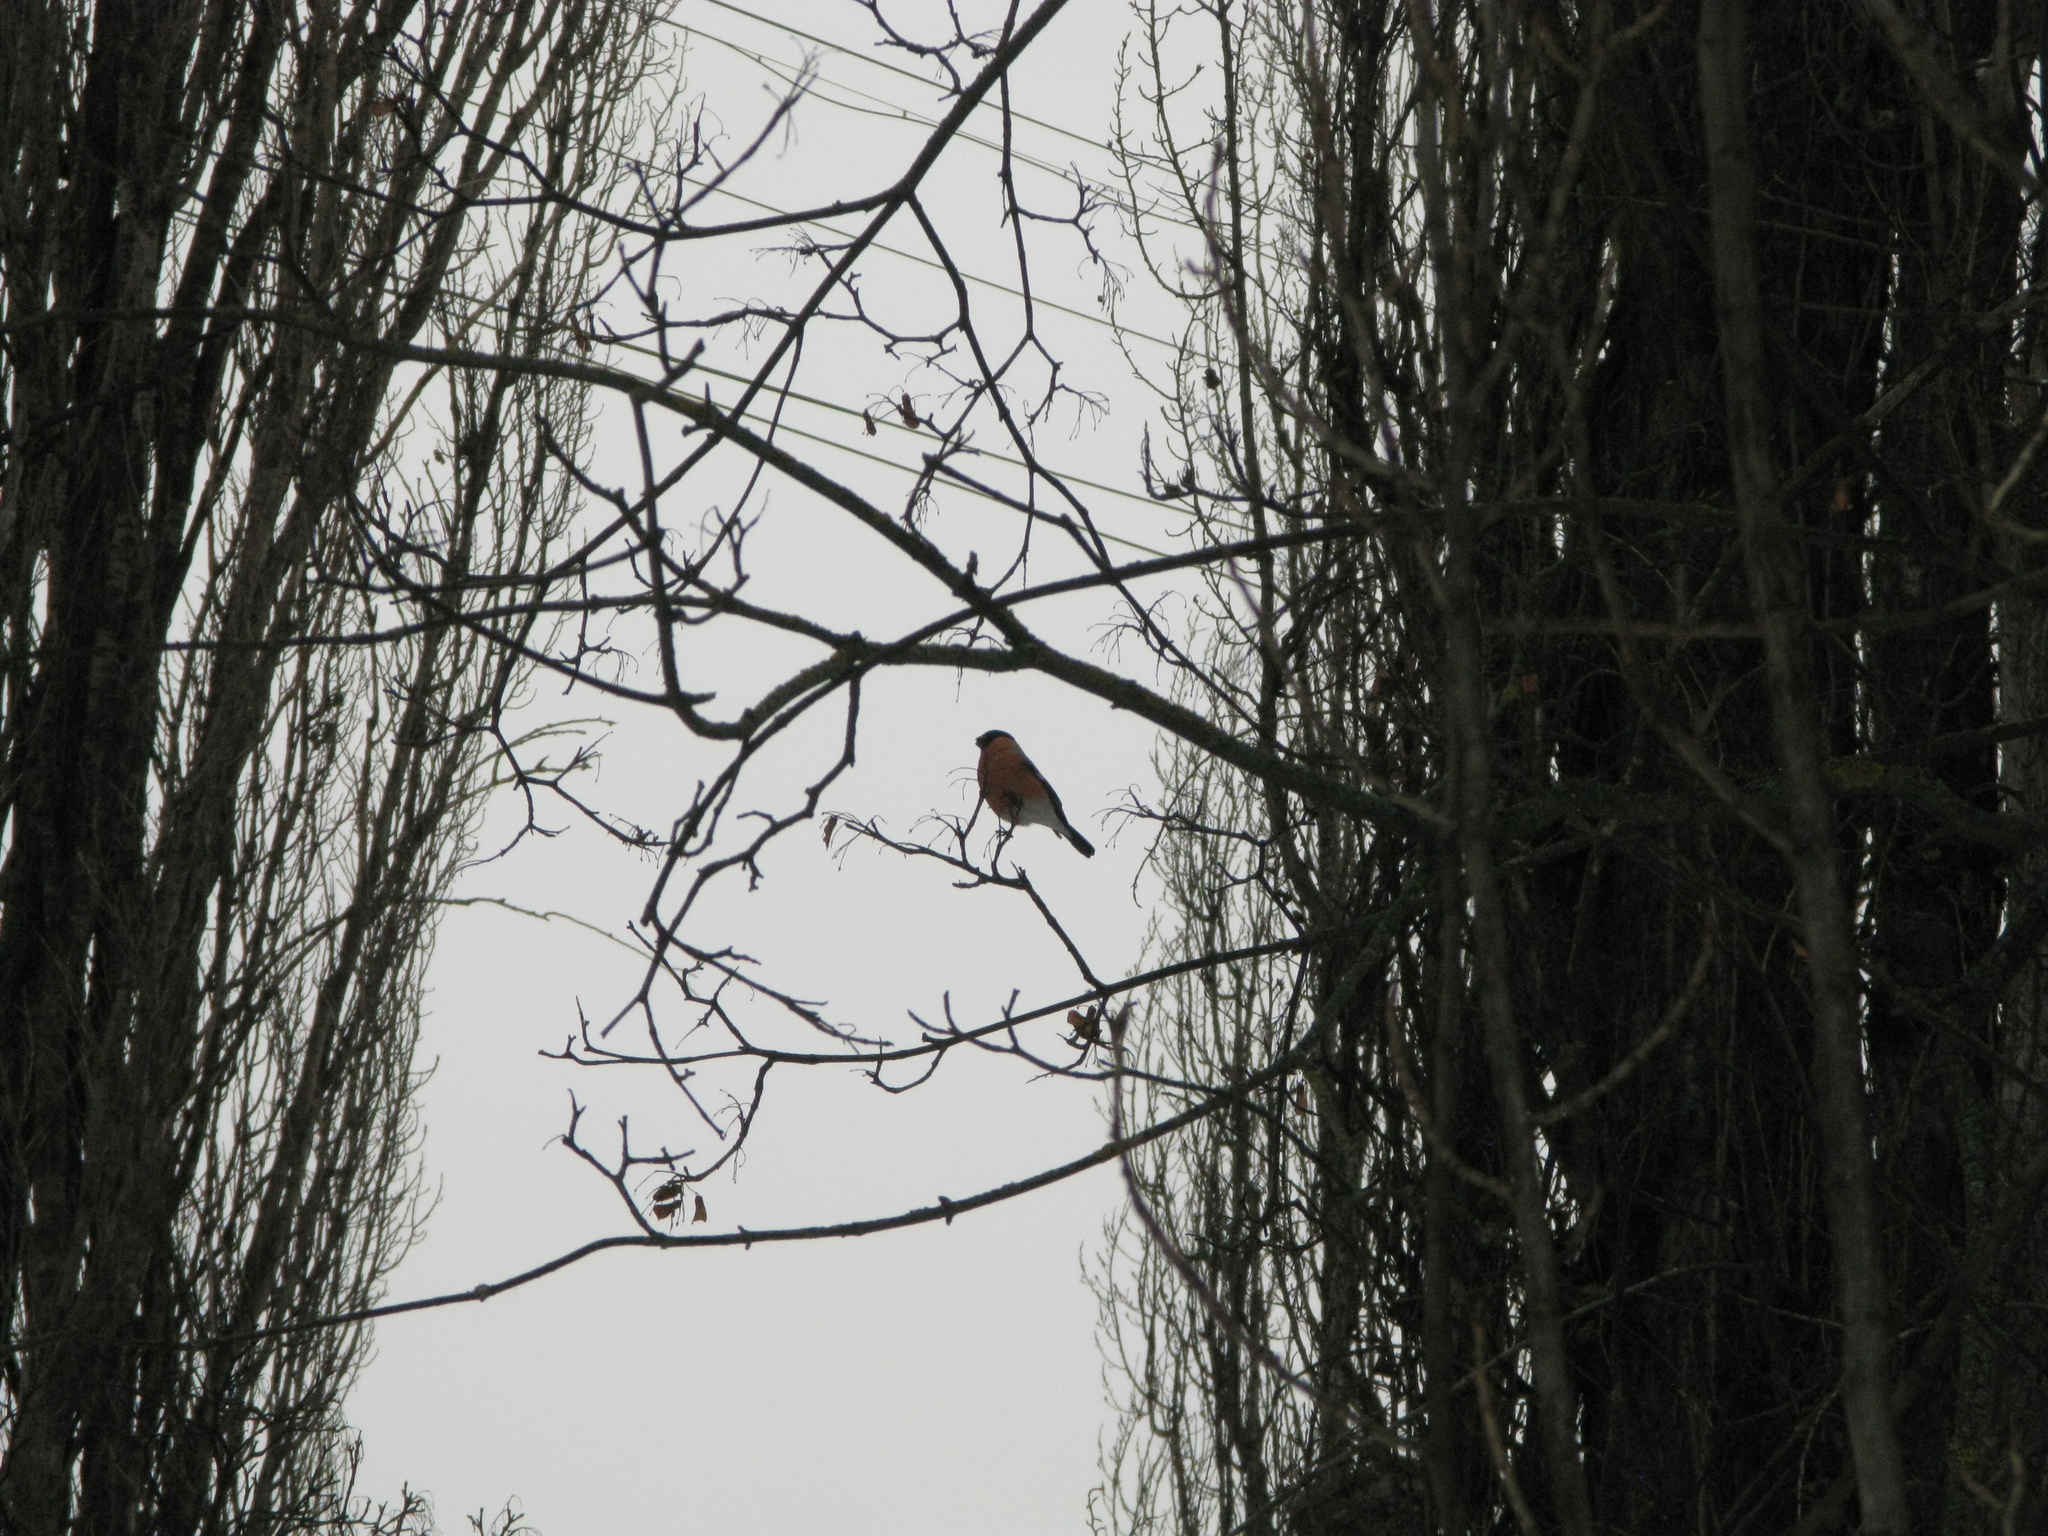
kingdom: Animalia
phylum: Chordata
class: Aves
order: Passeriformes
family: Fringillidae
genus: Pyrrhula
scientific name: Pyrrhula pyrrhula
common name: Eurasian bullfinch
